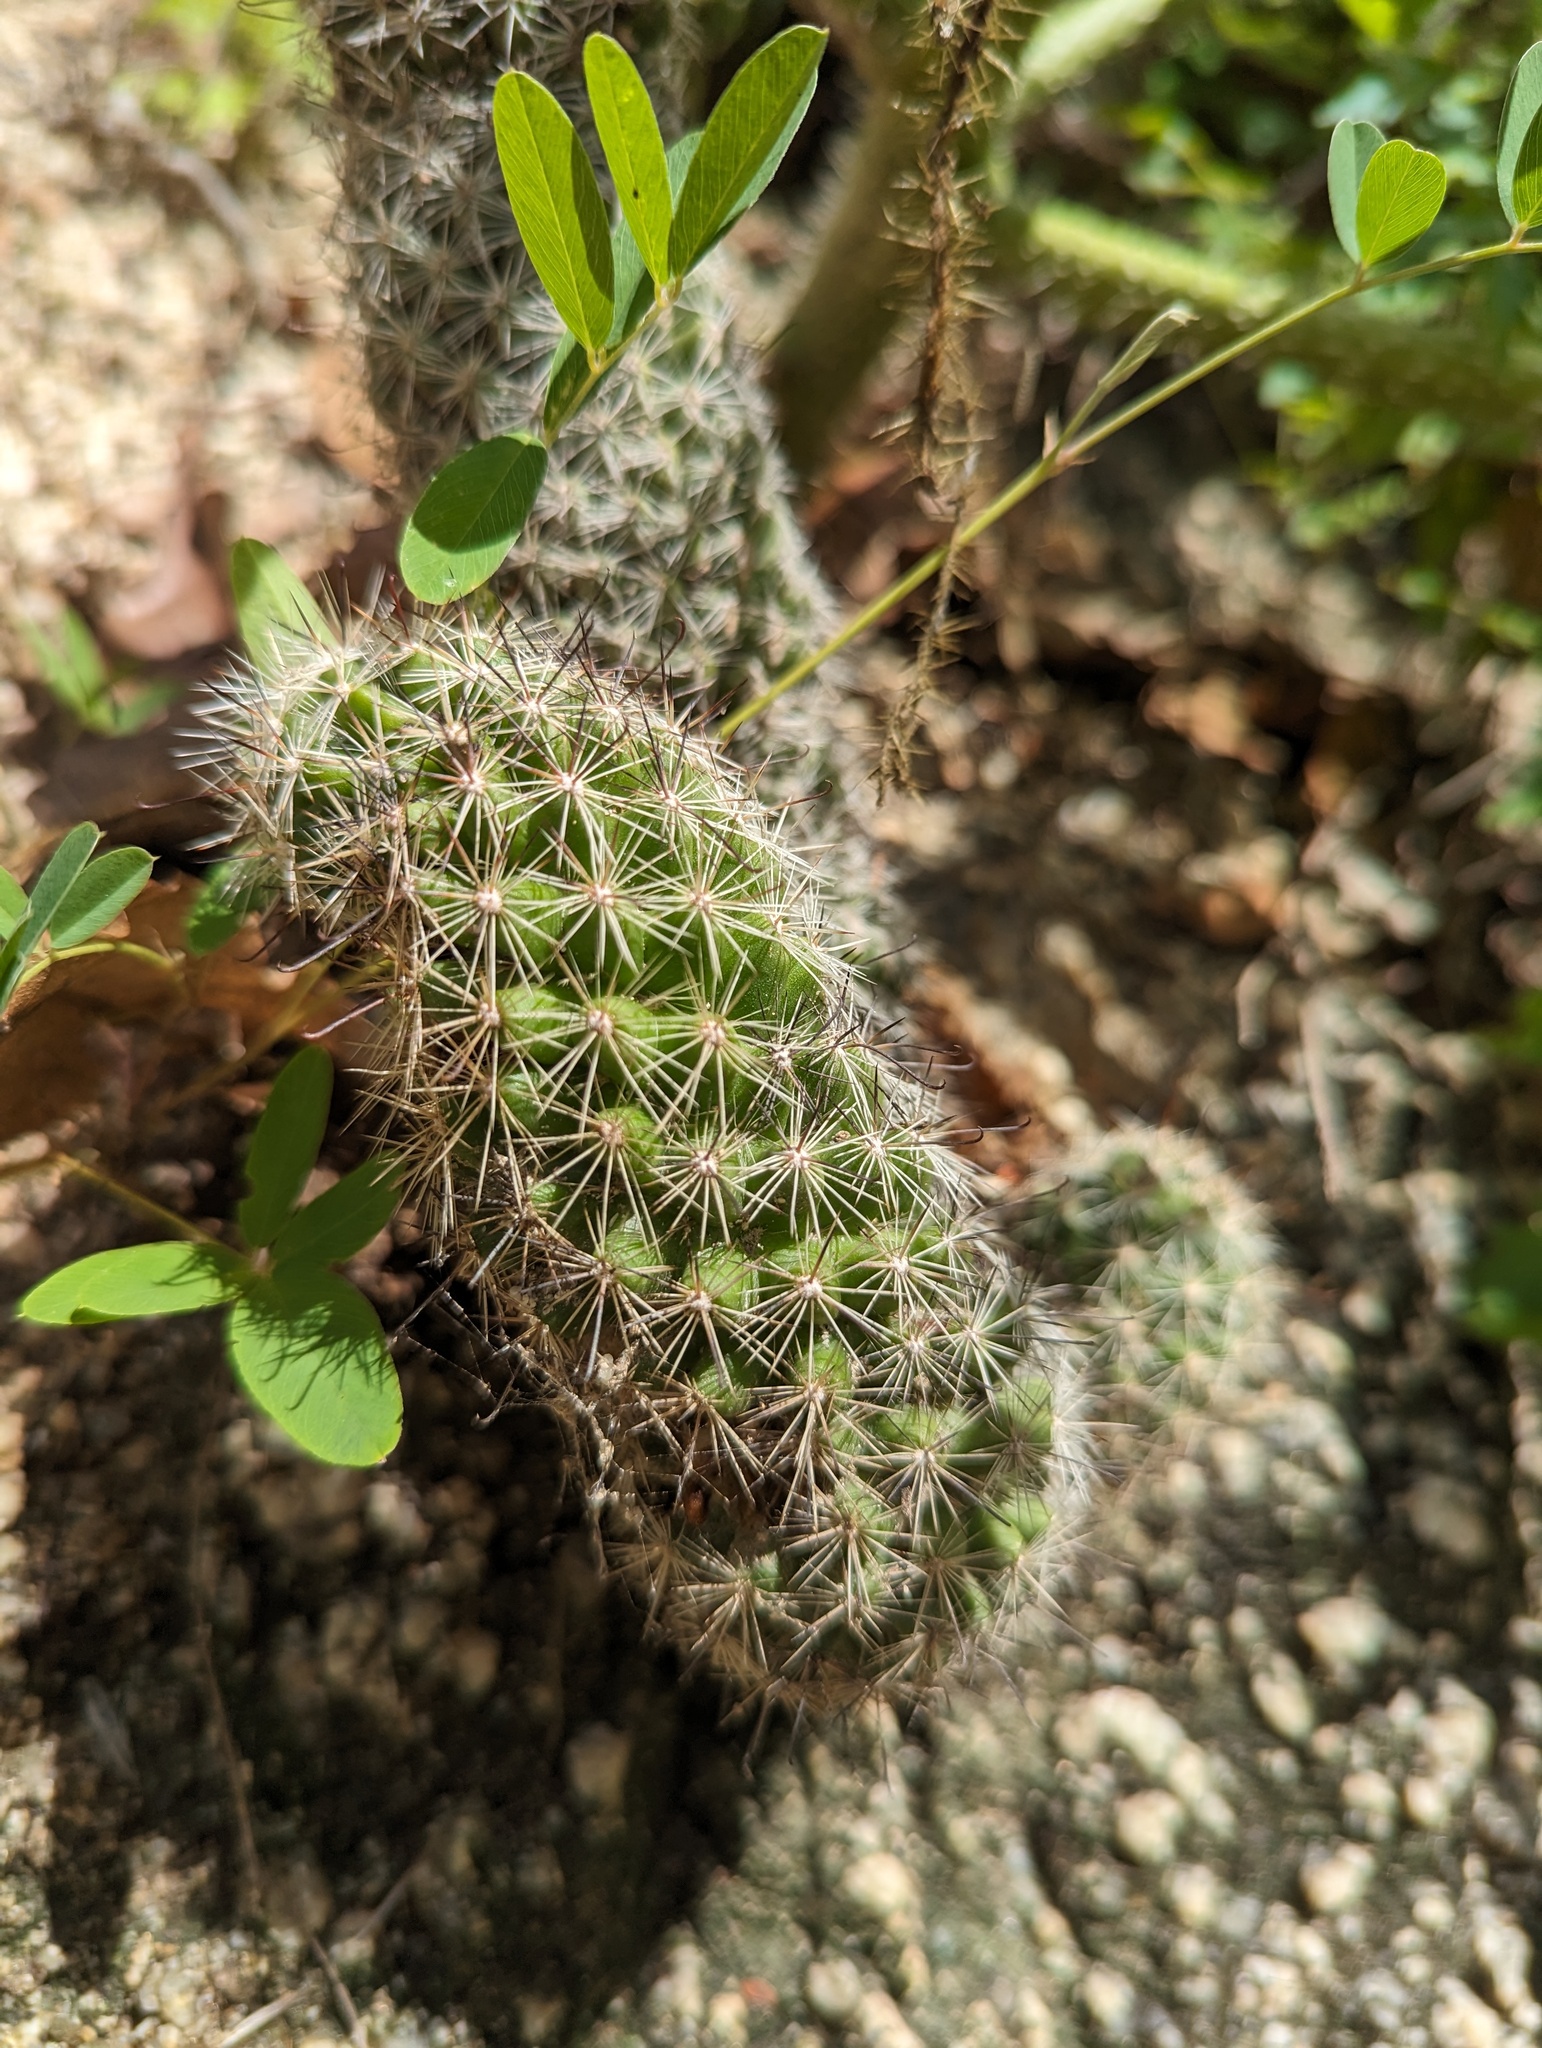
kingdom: Plantae
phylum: Tracheophyta
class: Magnoliopsida
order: Caryophyllales
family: Cactaceae
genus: Cochemiea
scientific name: Cochemiea phitauiana
